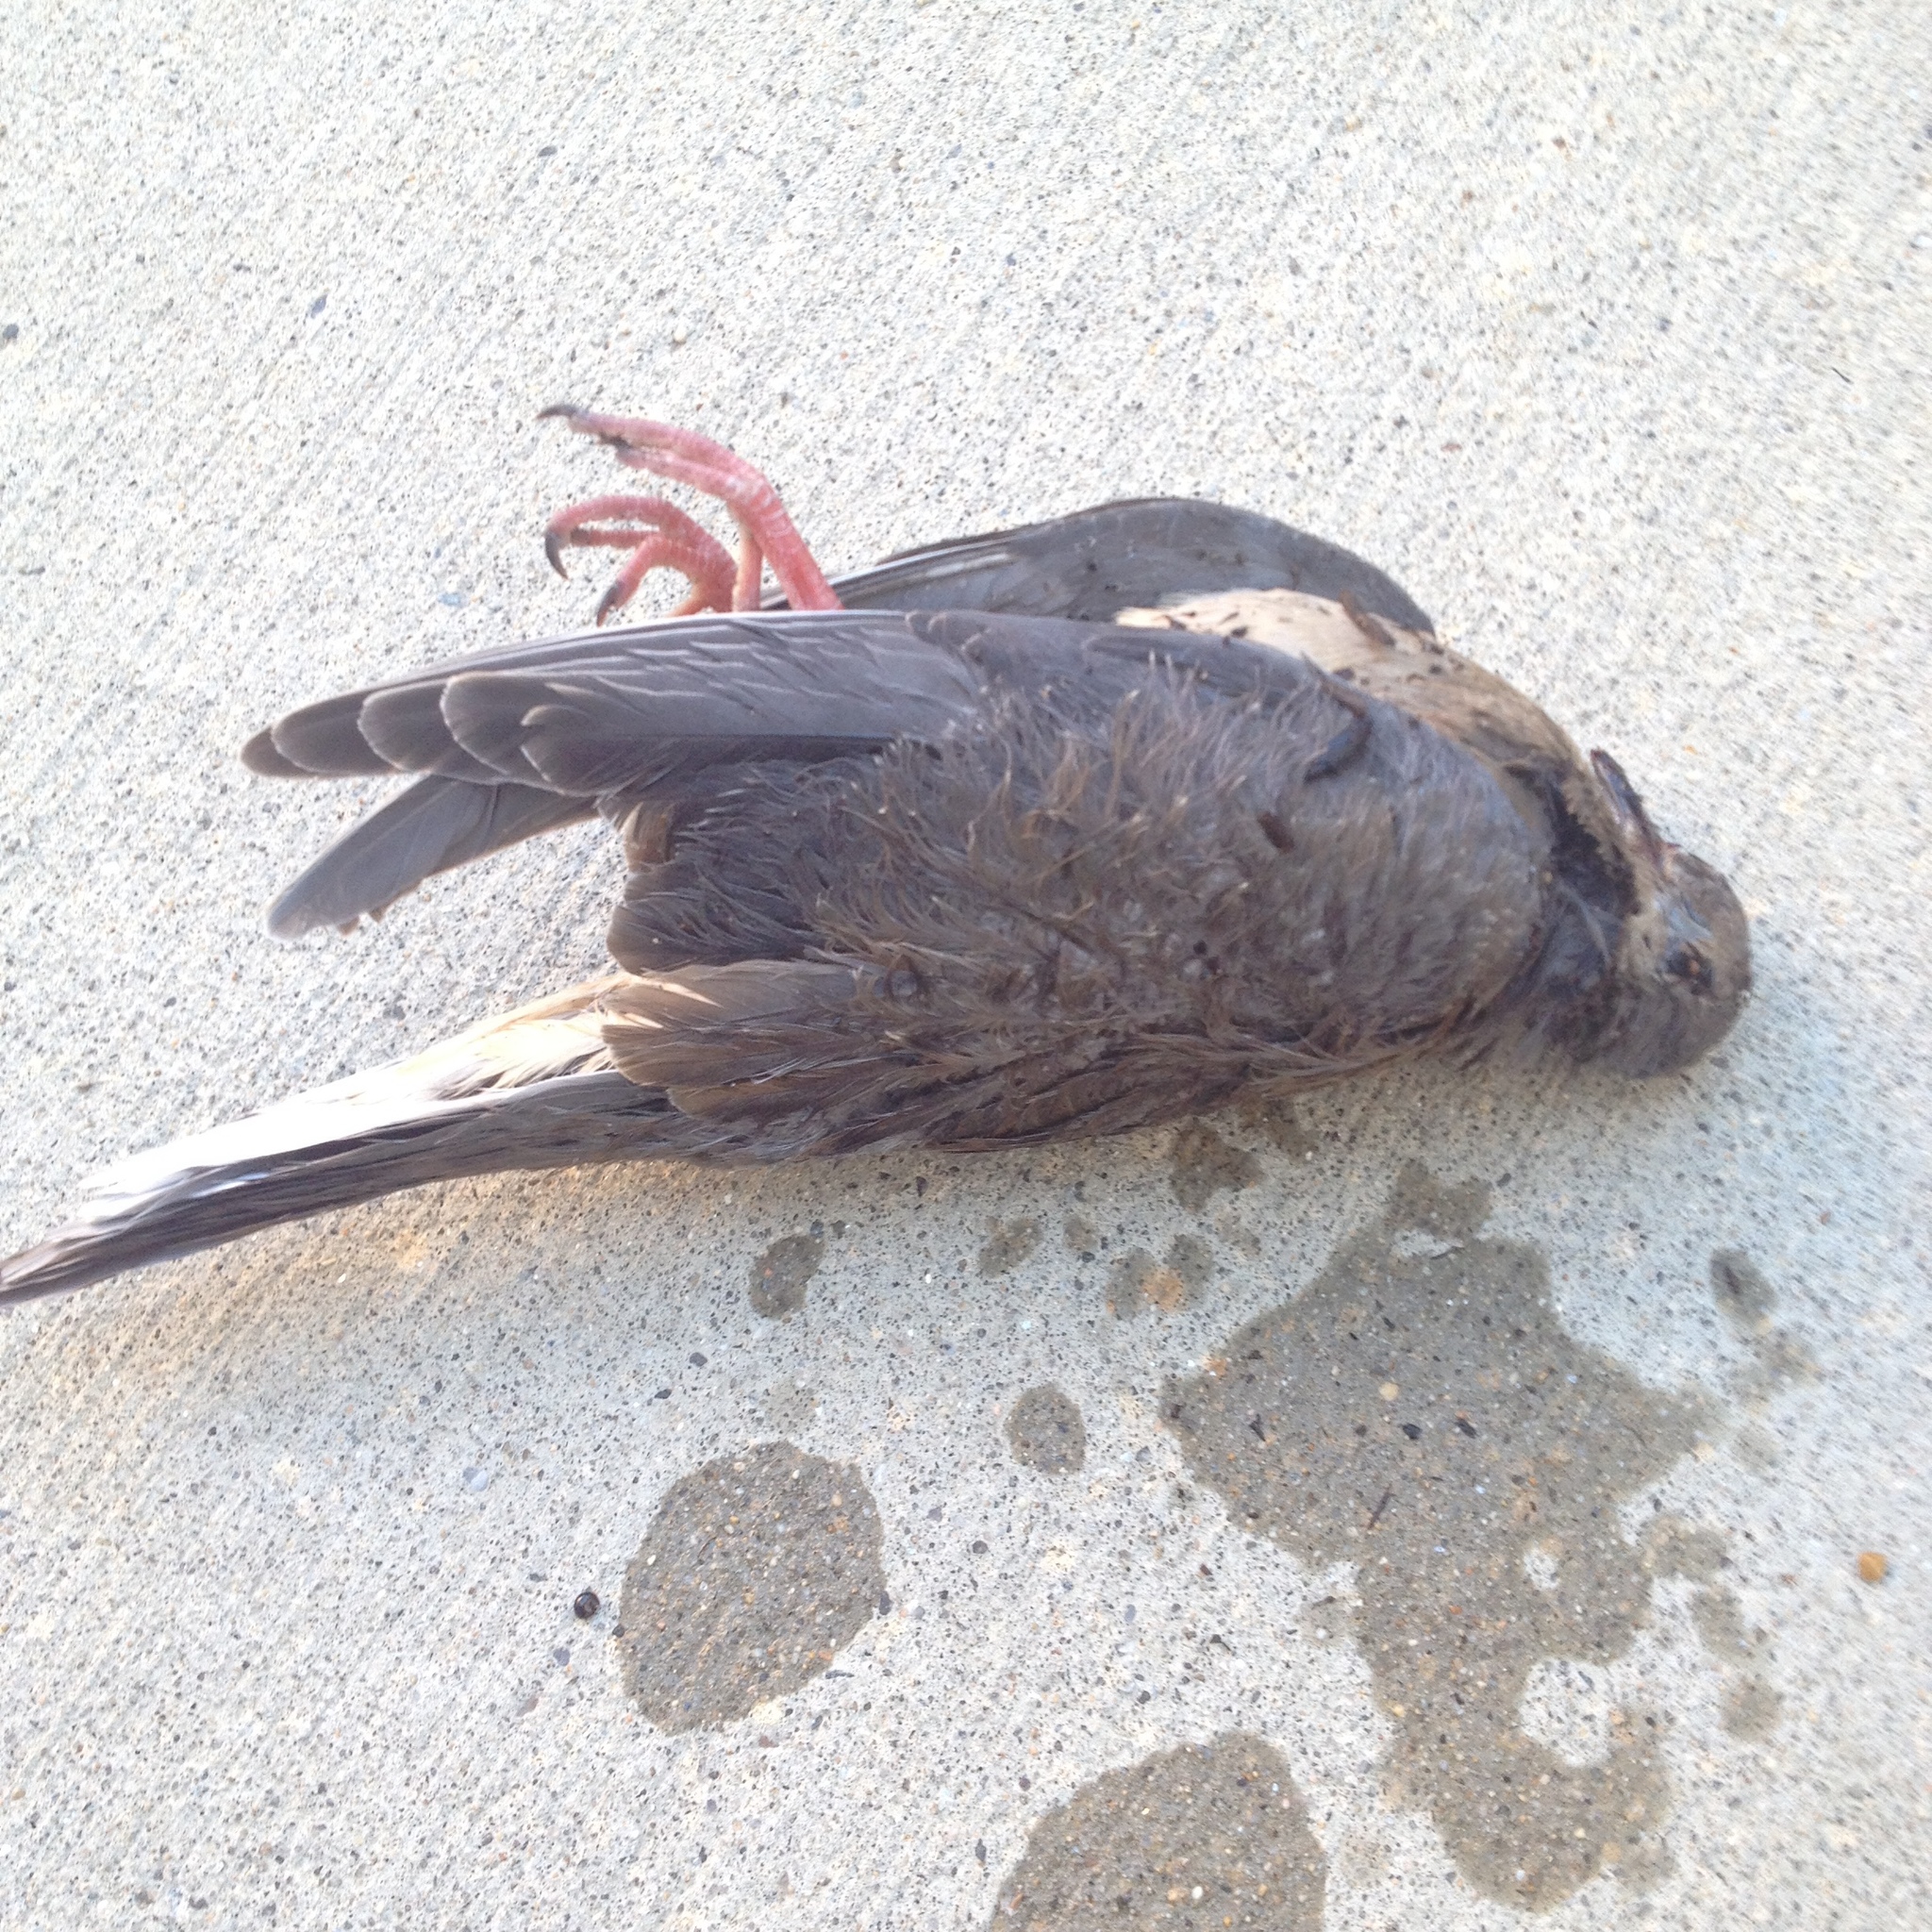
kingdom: Animalia
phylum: Chordata
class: Aves
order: Columbiformes
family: Columbidae
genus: Zenaida
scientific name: Zenaida macroura
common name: Mourning dove
